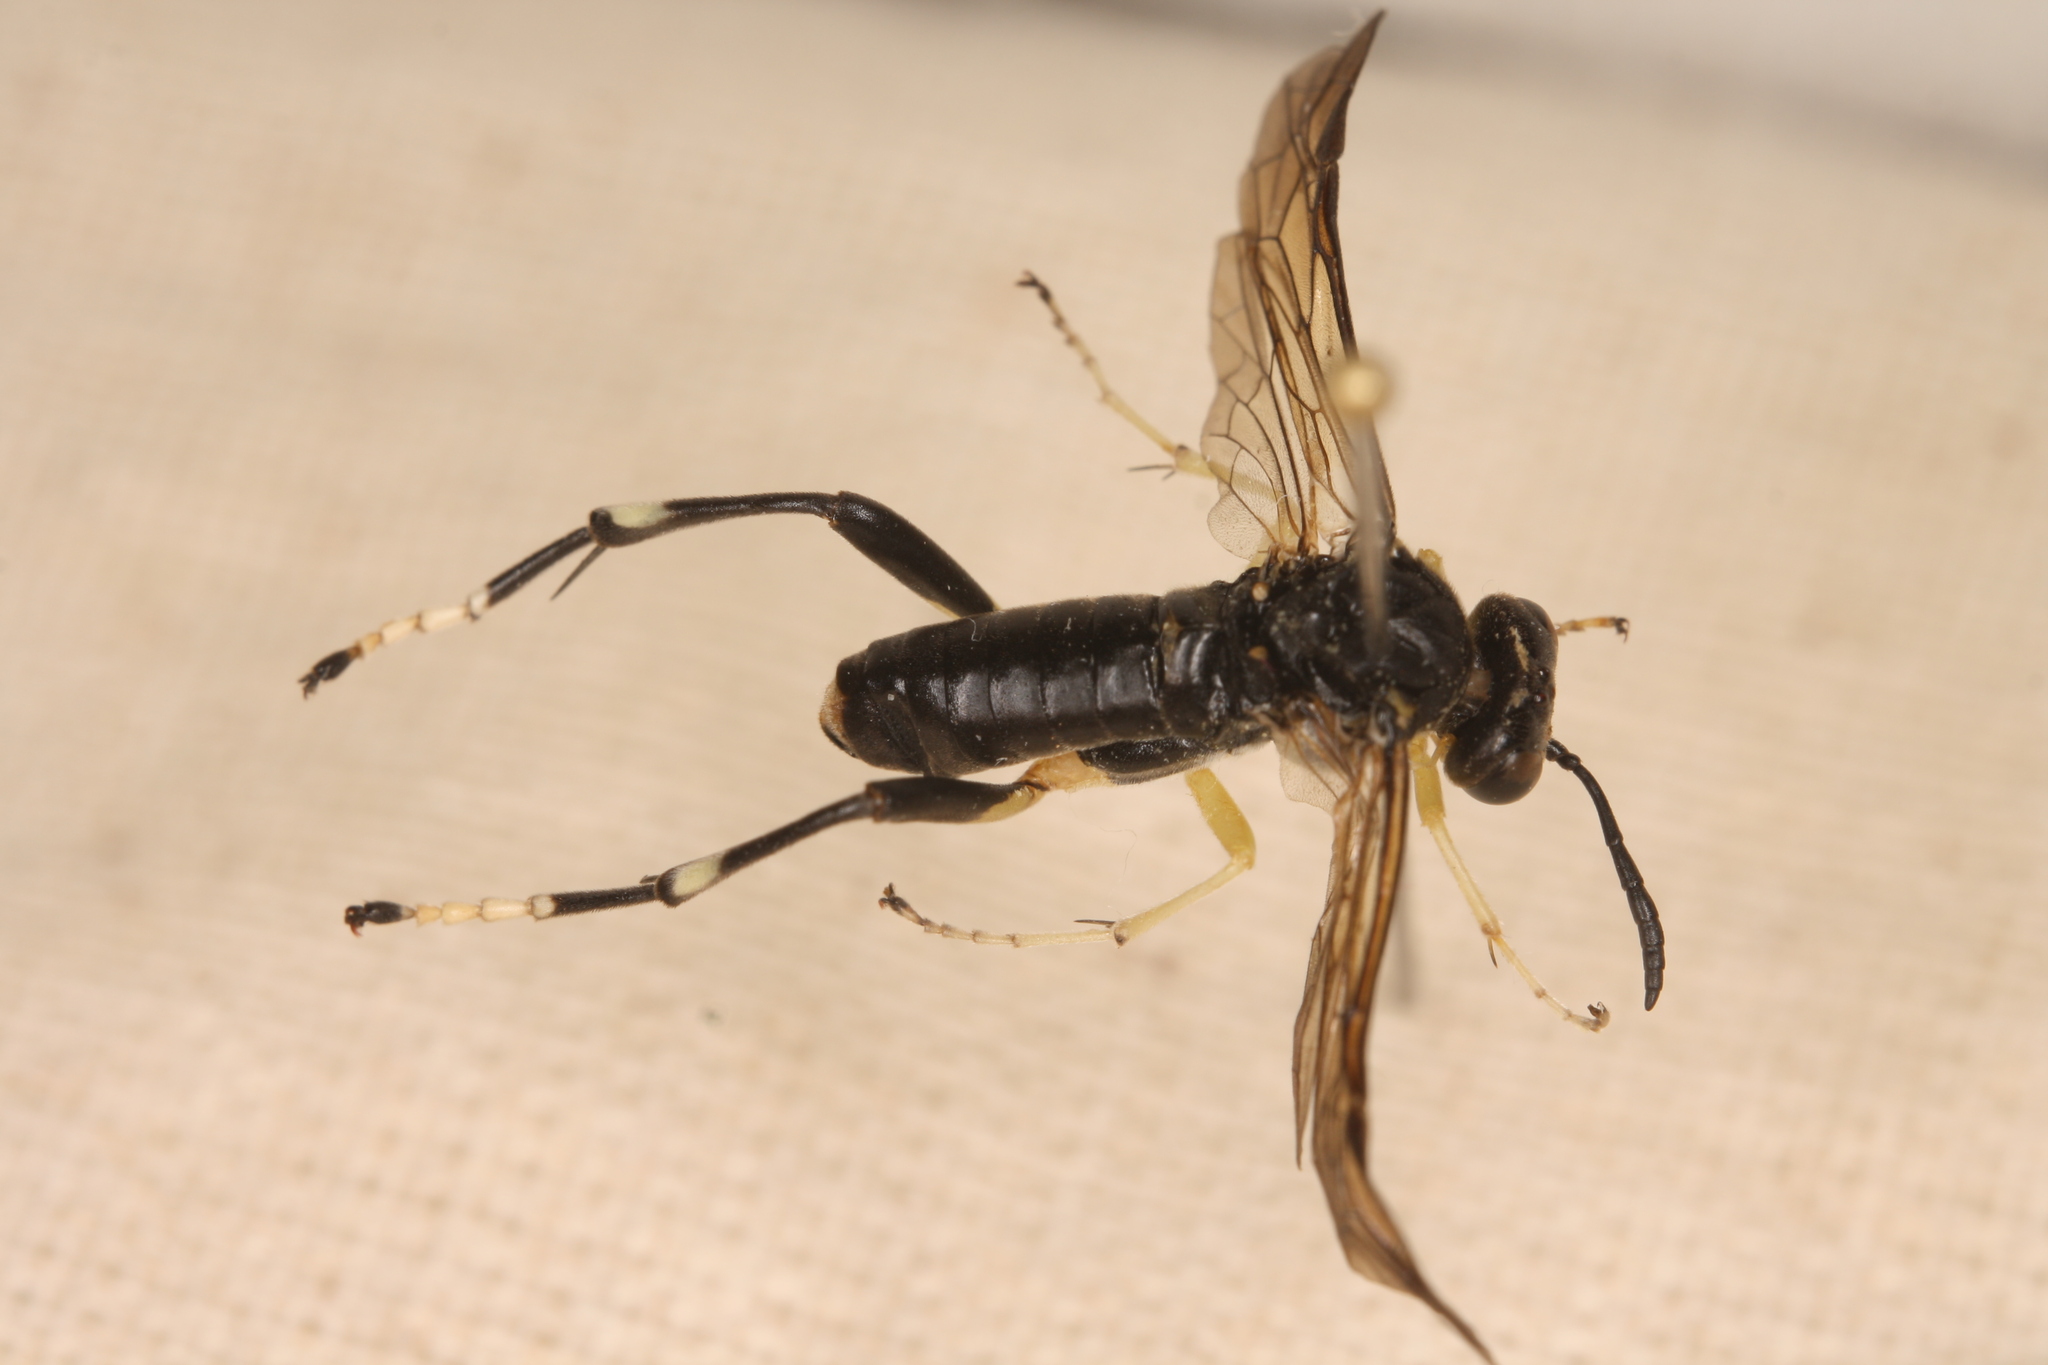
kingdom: Animalia
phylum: Arthropoda
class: Insecta
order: Hymenoptera
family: Tenthredinidae
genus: Macrophya
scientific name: Macrophya montana
